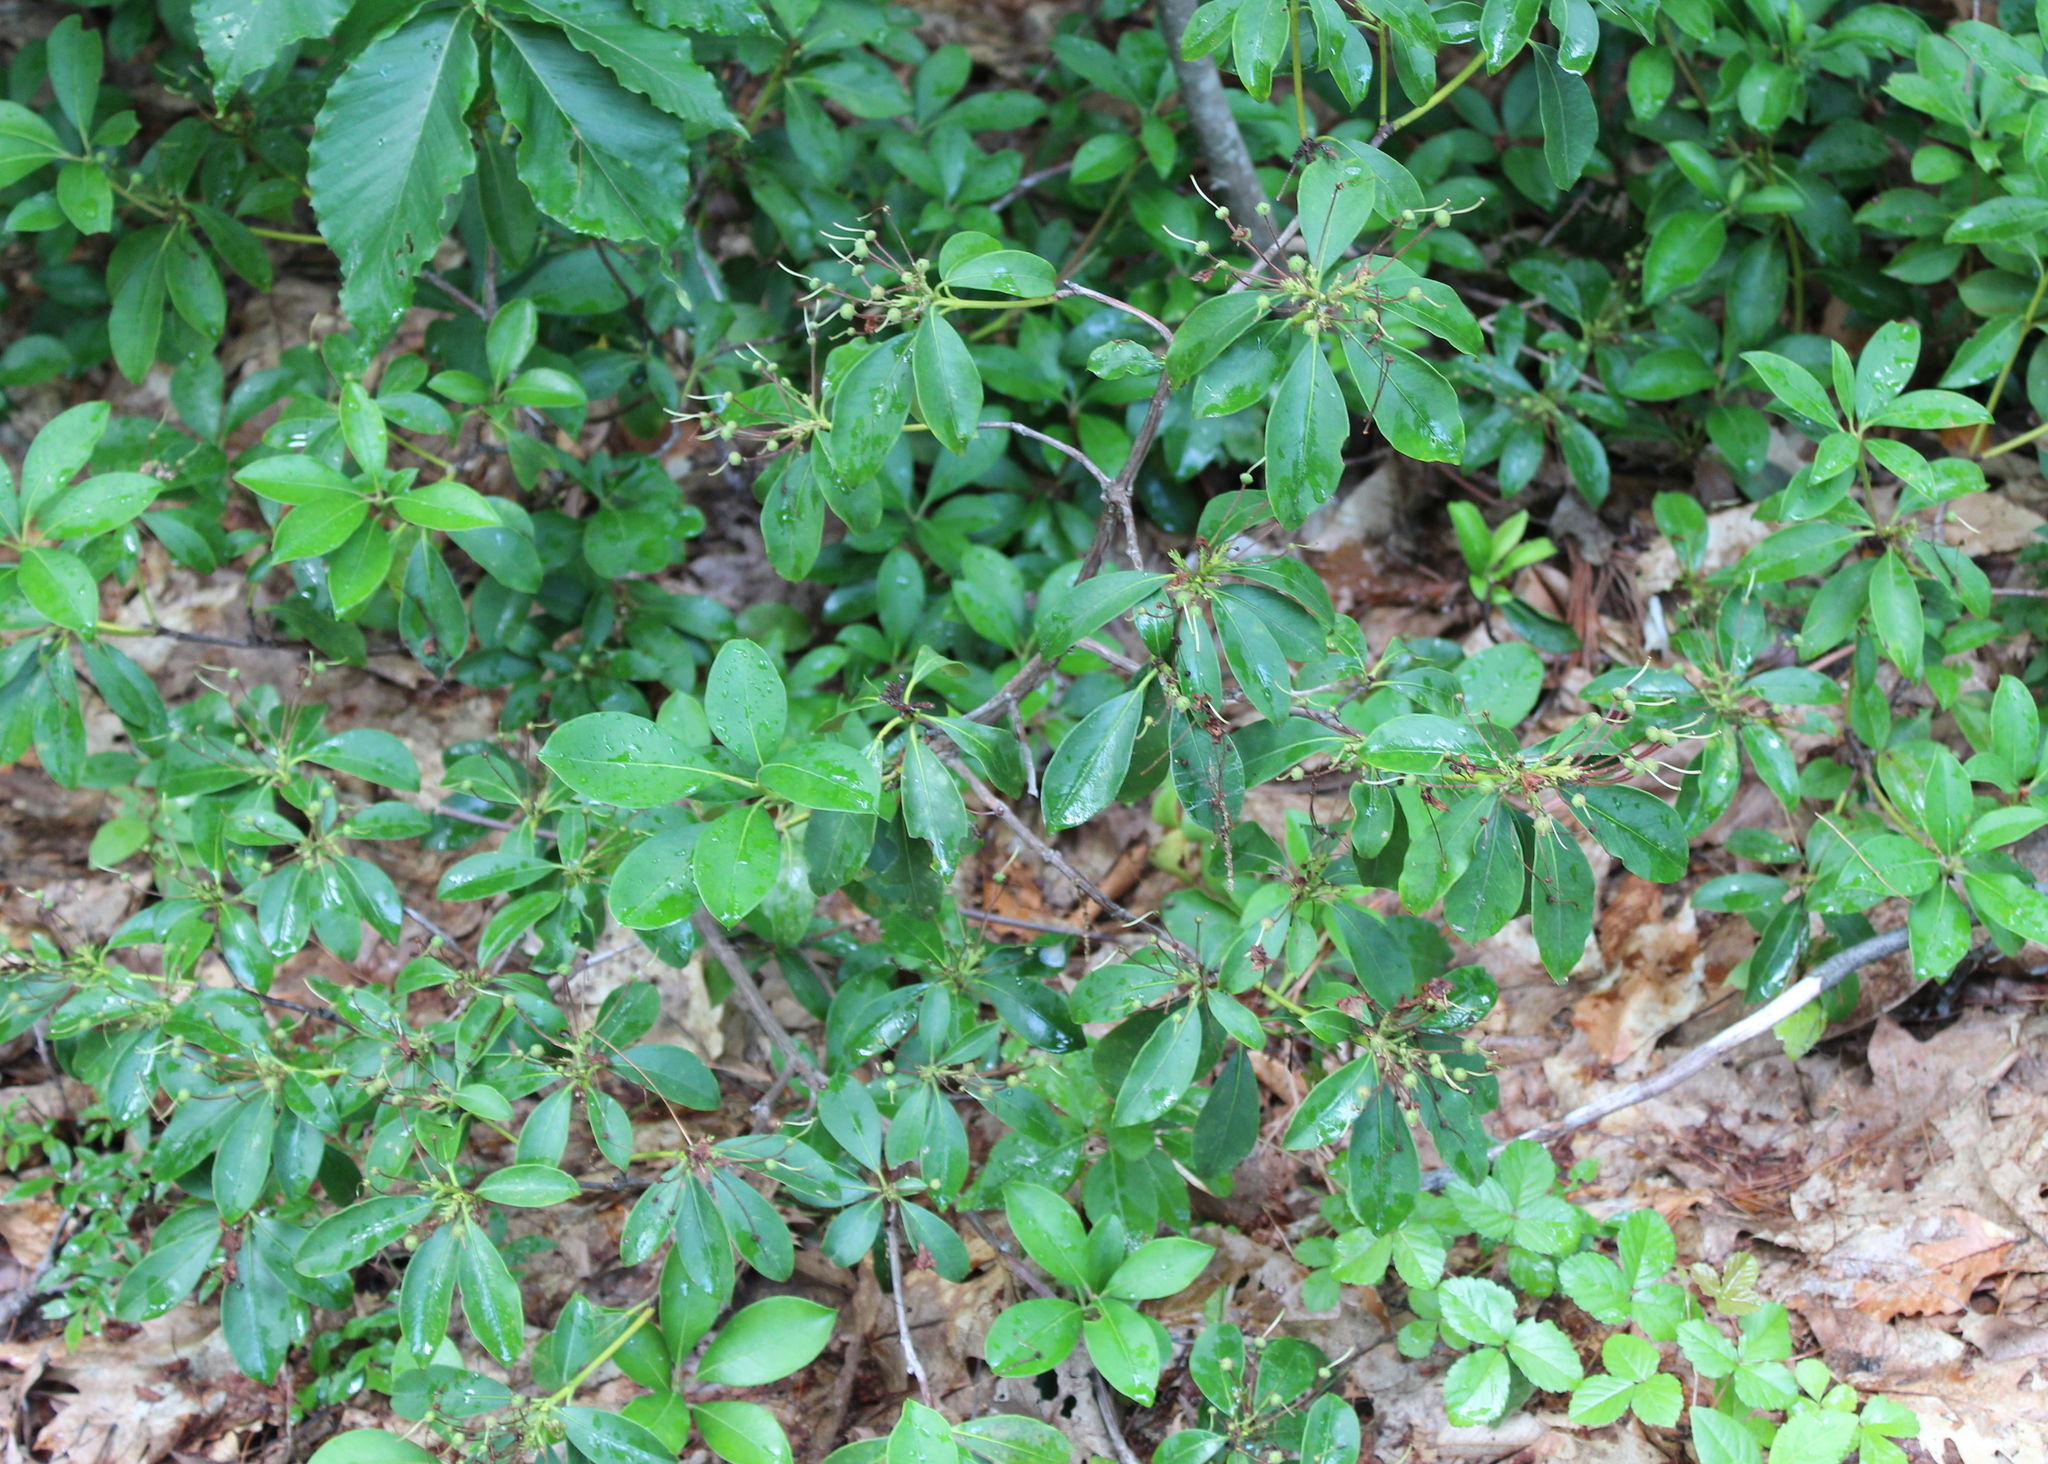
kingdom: Plantae
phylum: Tracheophyta
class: Magnoliopsida
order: Ericales
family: Ericaceae
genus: Kalmia
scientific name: Kalmia latifolia
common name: Mountain-laurel
